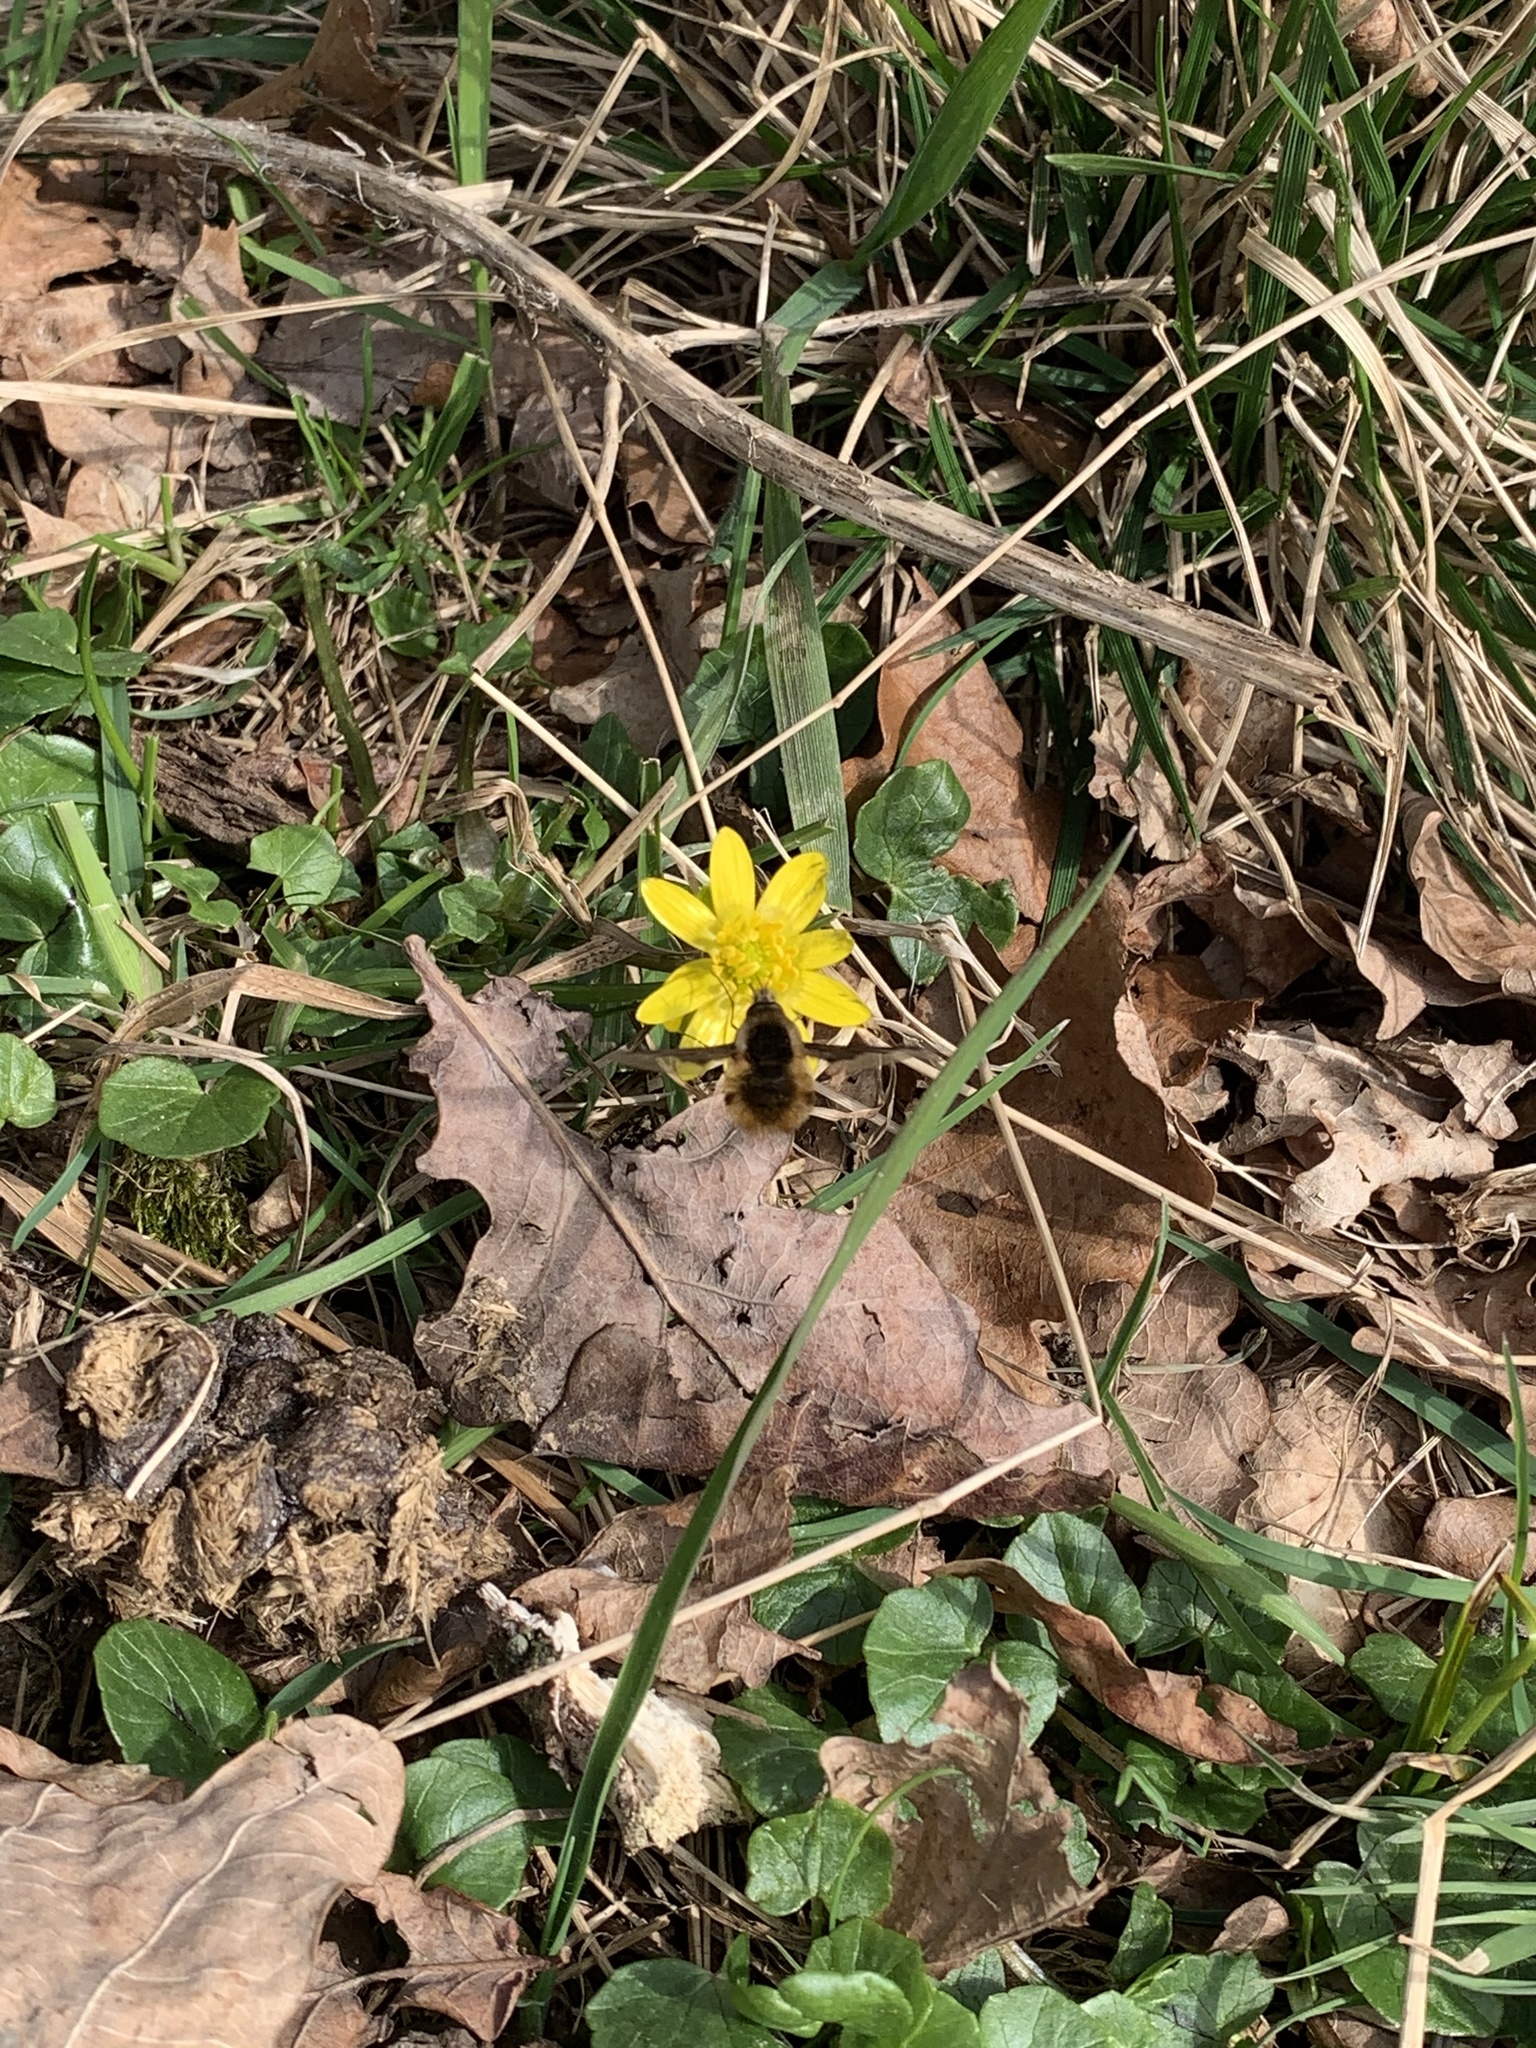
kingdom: Animalia
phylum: Arthropoda
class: Insecta
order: Diptera
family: Bombyliidae
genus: Bombylius
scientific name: Bombylius major
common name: Bee fly
